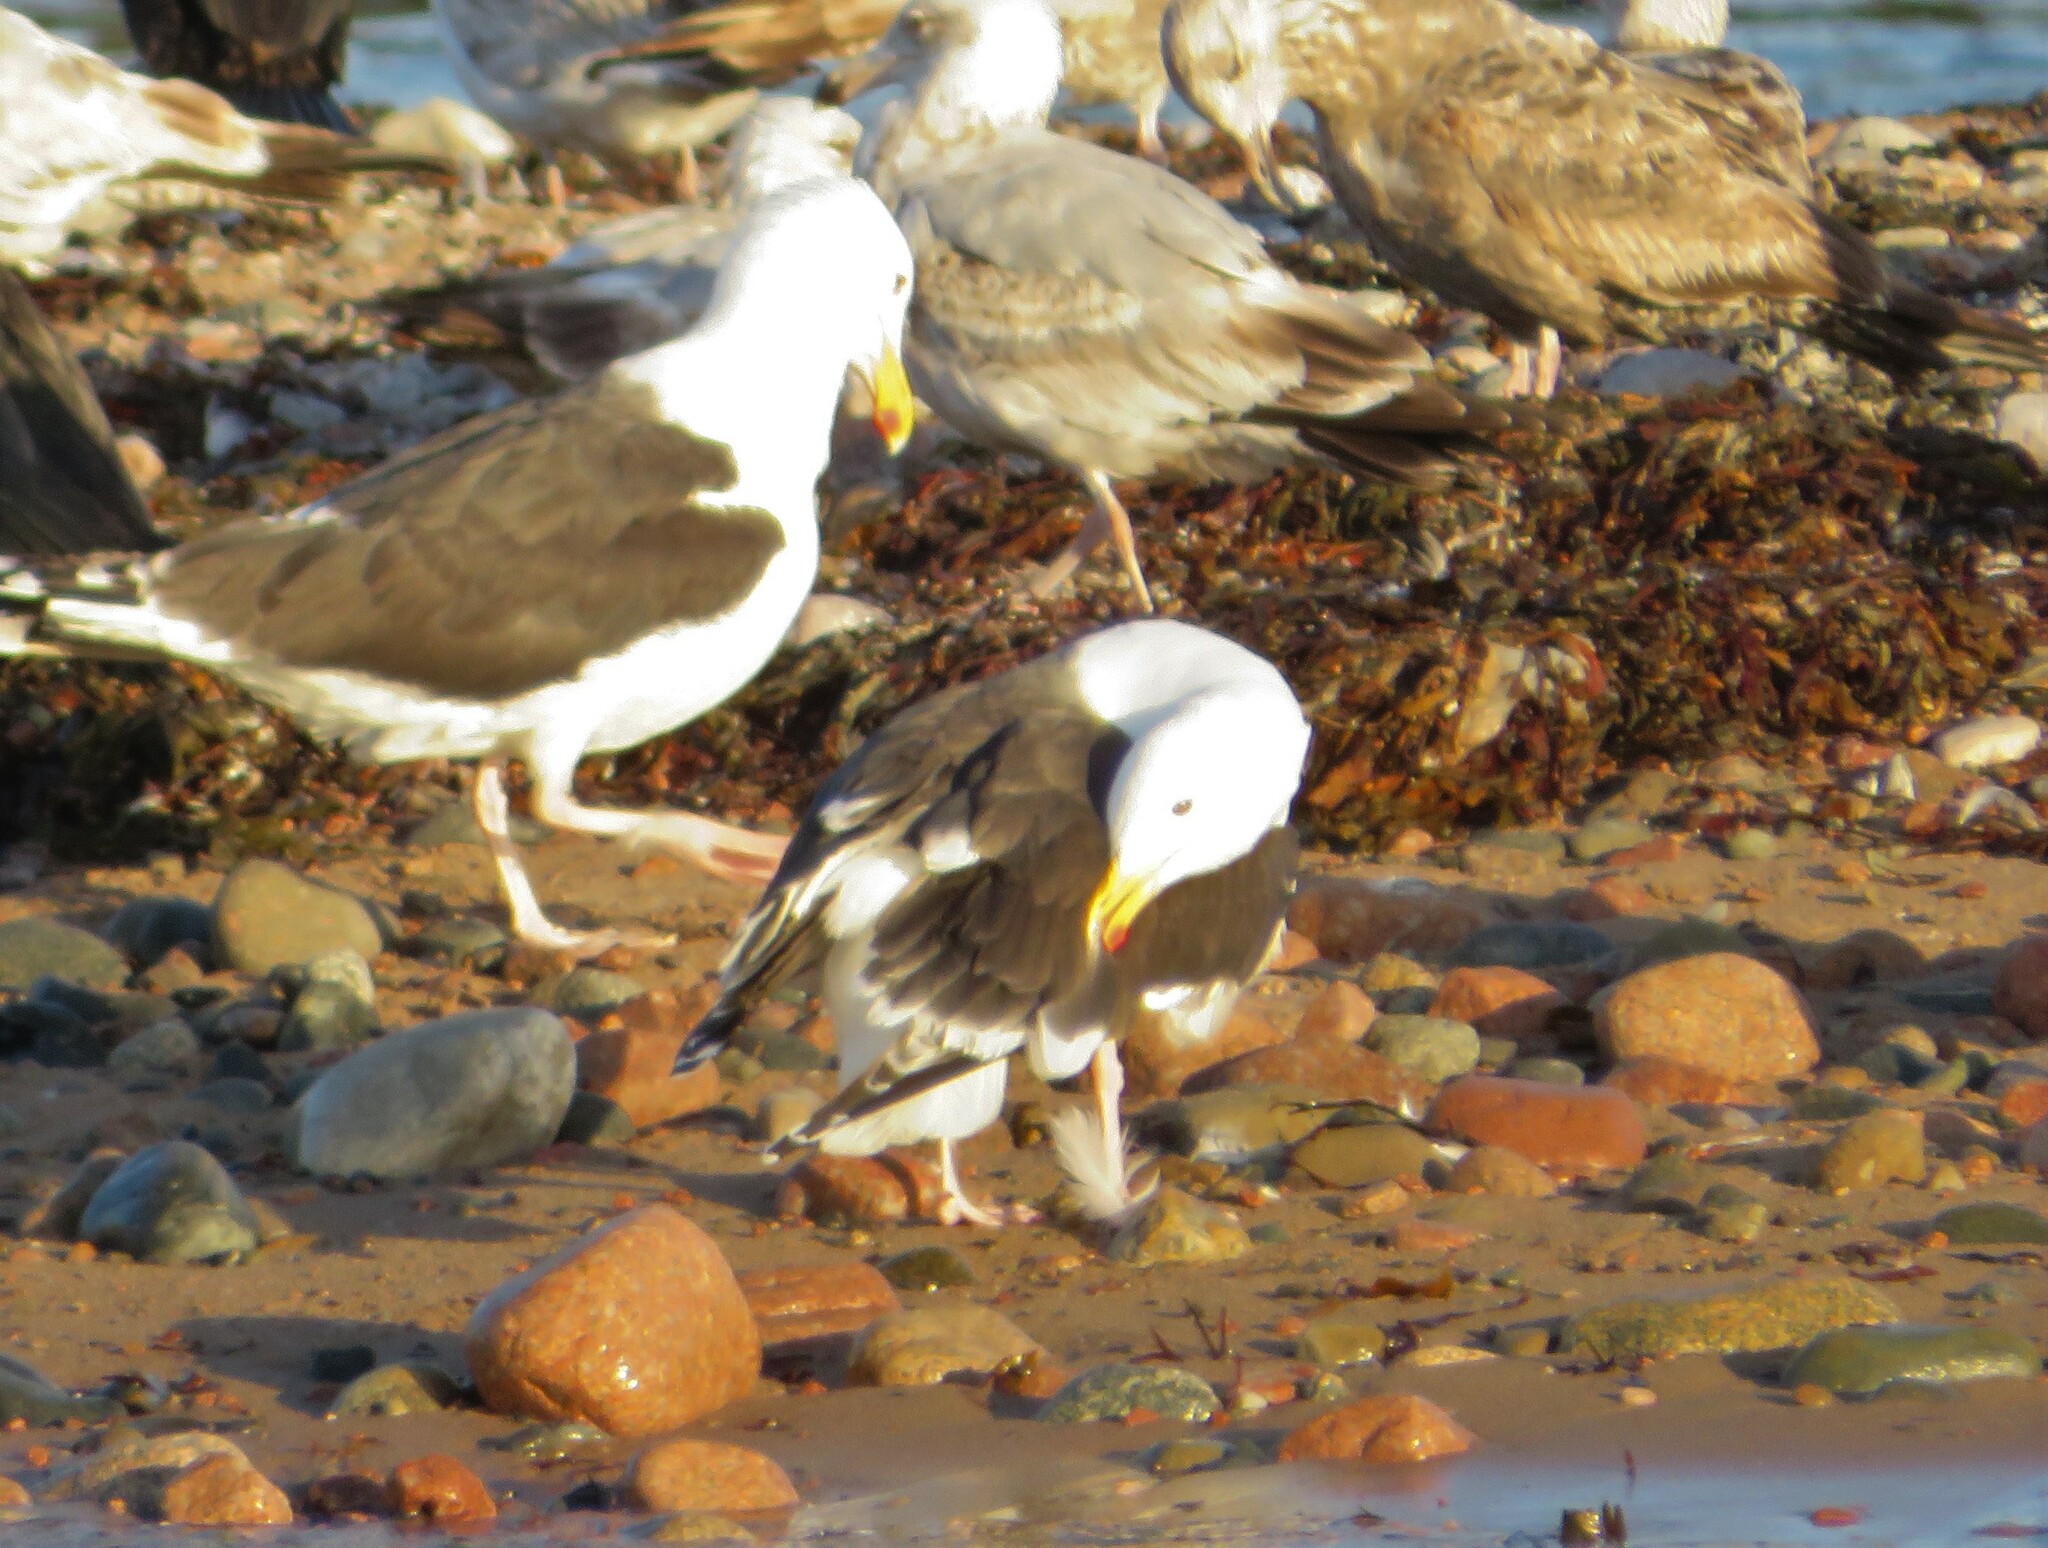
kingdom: Animalia
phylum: Chordata
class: Aves
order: Charadriiformes
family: Laridae
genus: Larus
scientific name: Larus marinus
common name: Great black-backed gull
